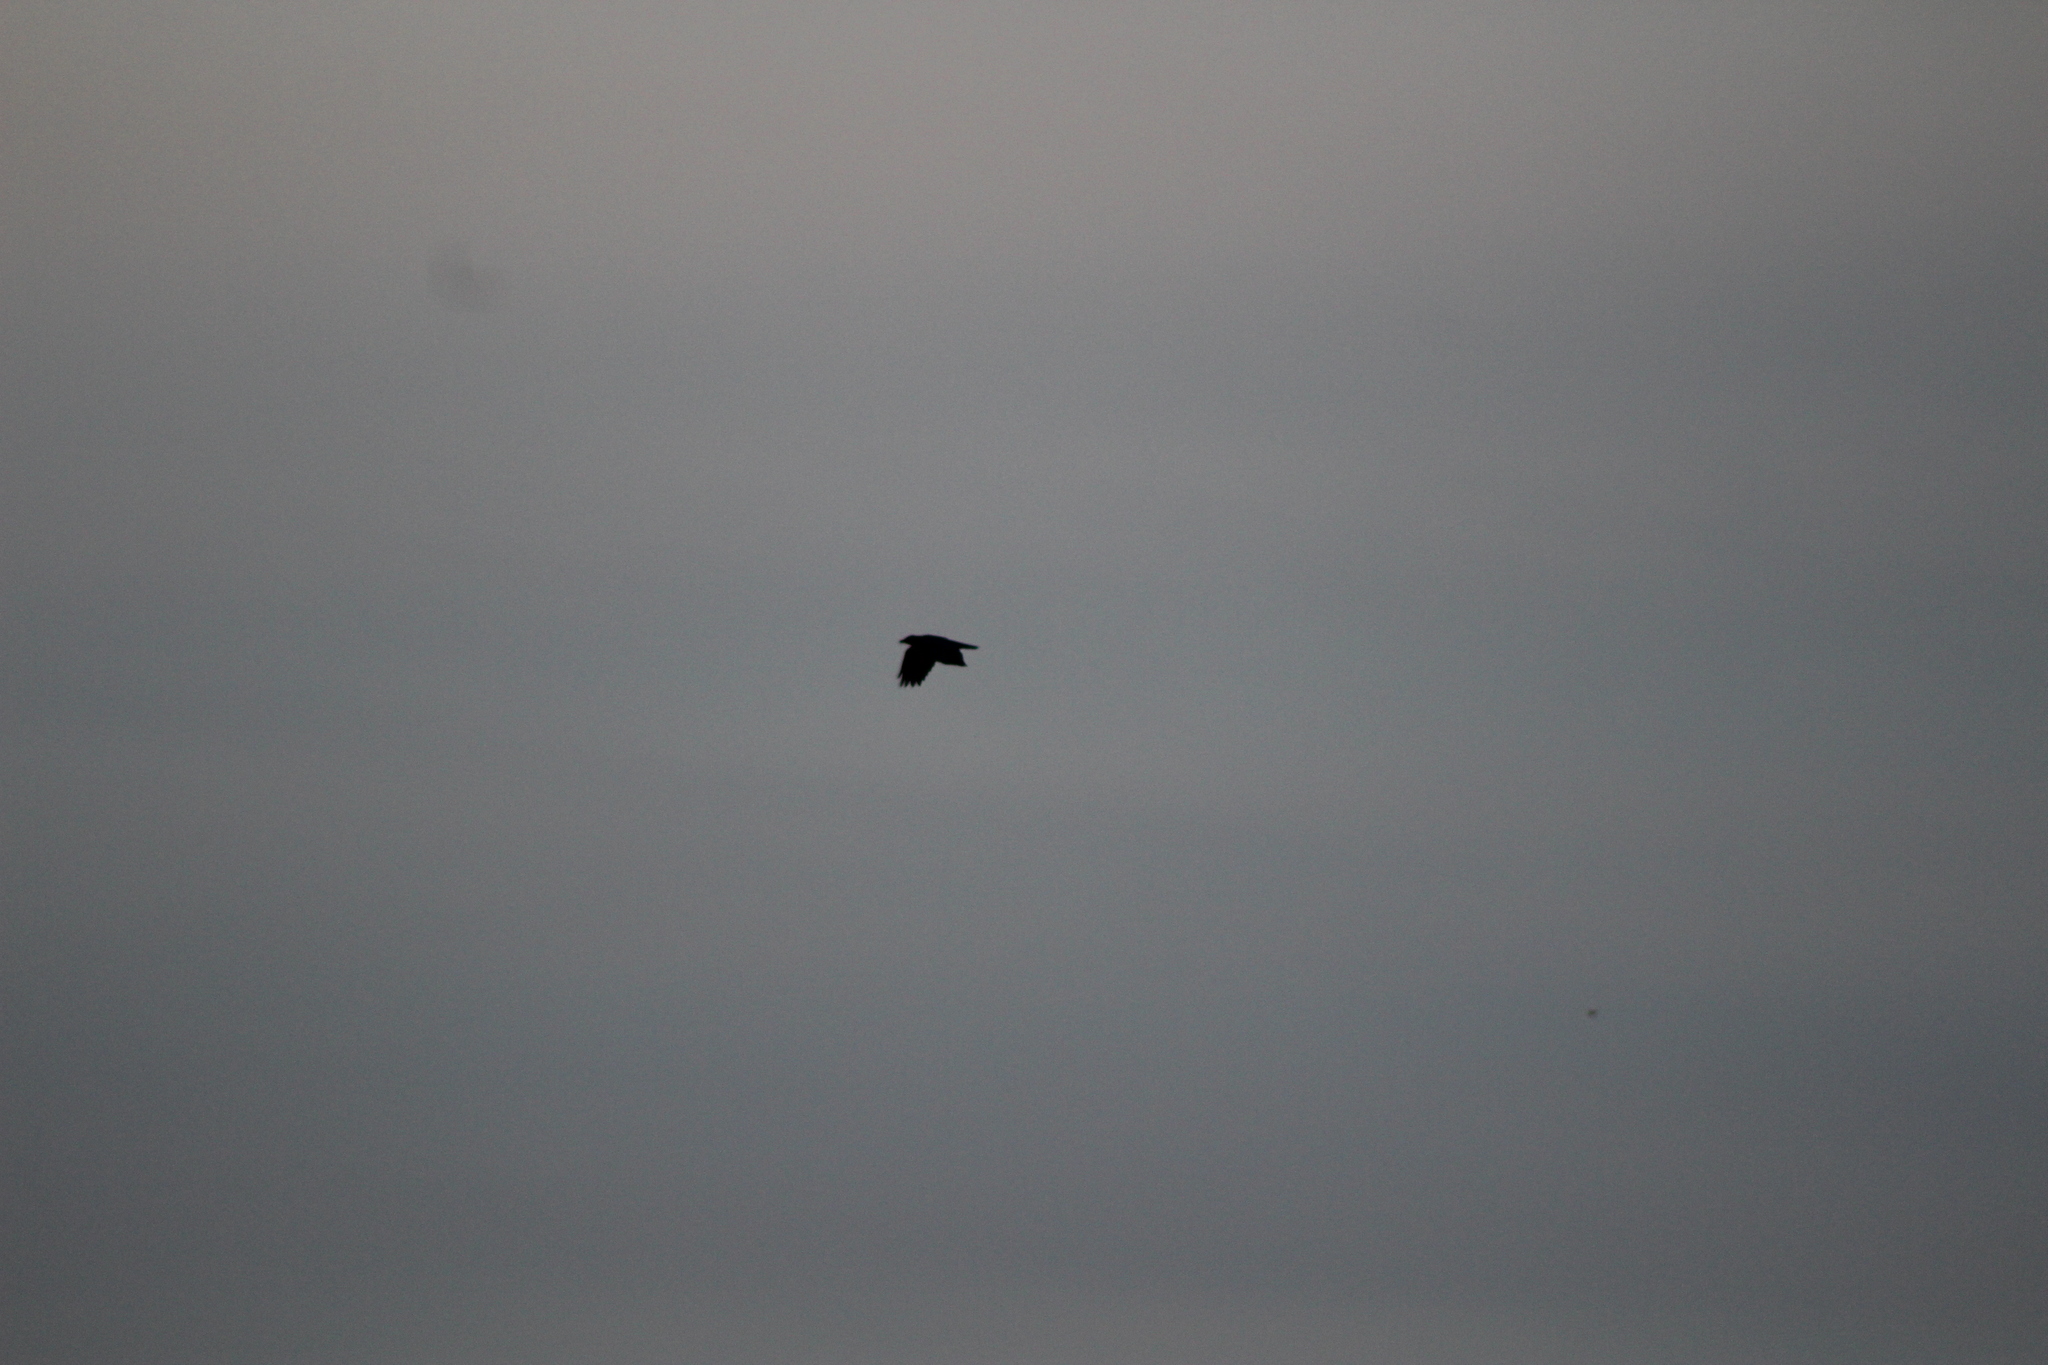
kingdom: Animalia
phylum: Chordata
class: Aves
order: Passeriformes
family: Corvidae
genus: Corvus
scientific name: Corvus brachyrhynchos
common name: American crow
